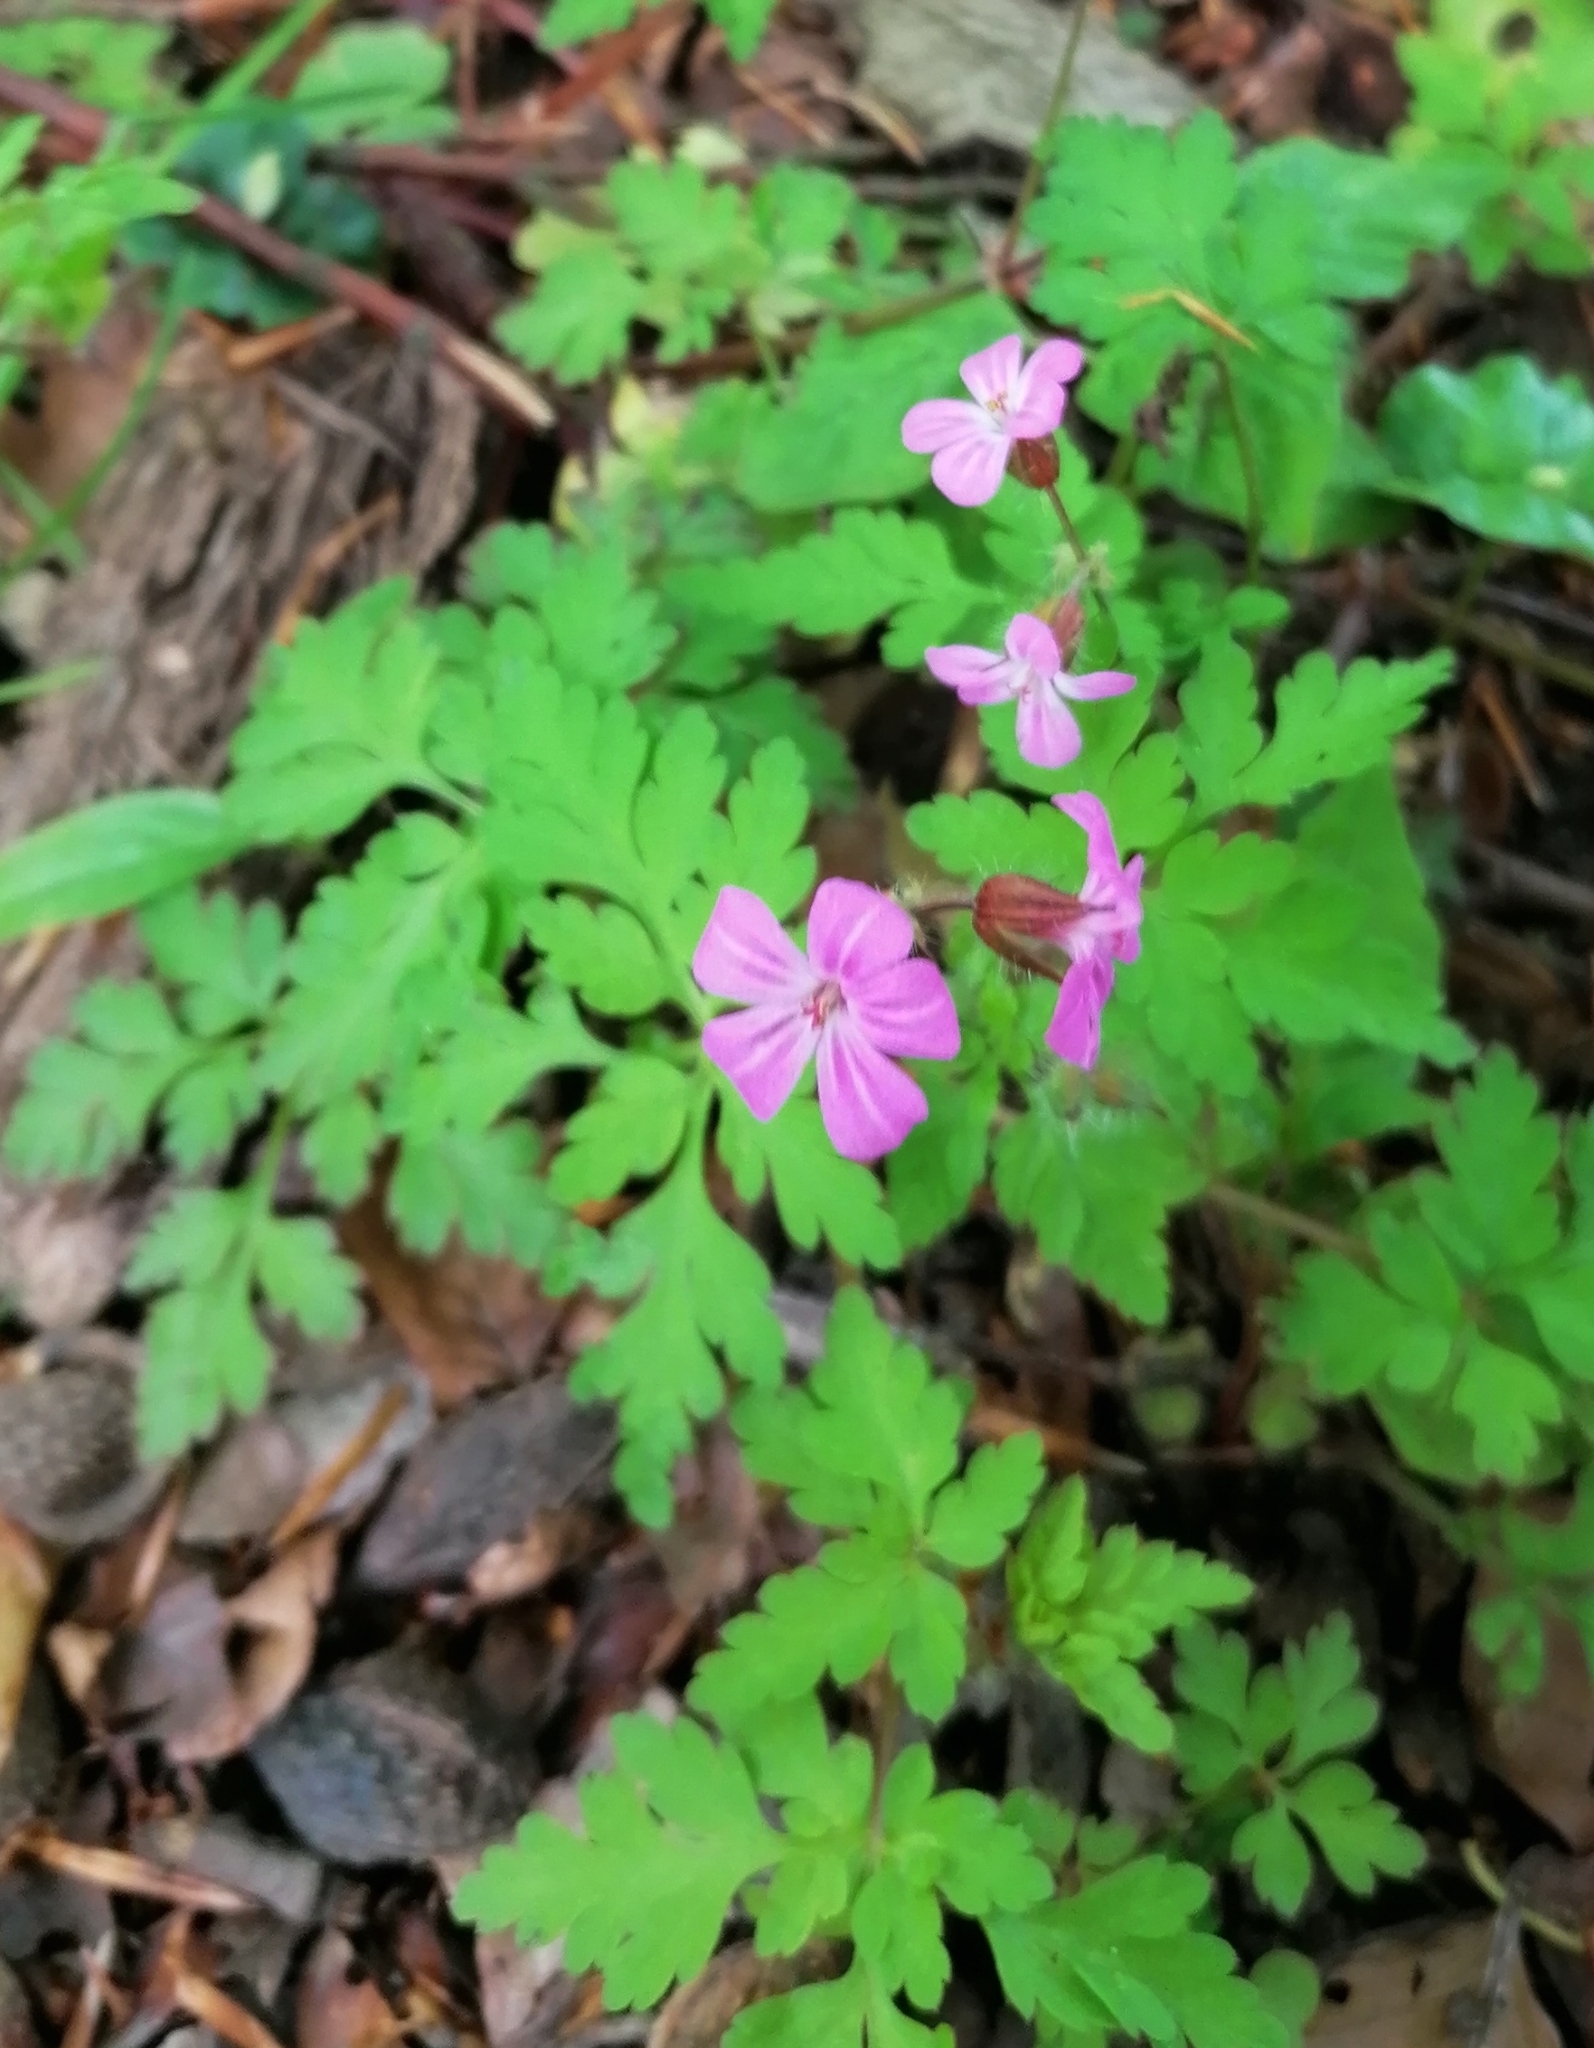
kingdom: Plantae
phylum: Tracheophyta
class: Magnoliopsida
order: Geraniales
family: Geraniaceae
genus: Geranium
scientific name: Geranium robertianum
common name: Herb-robert
